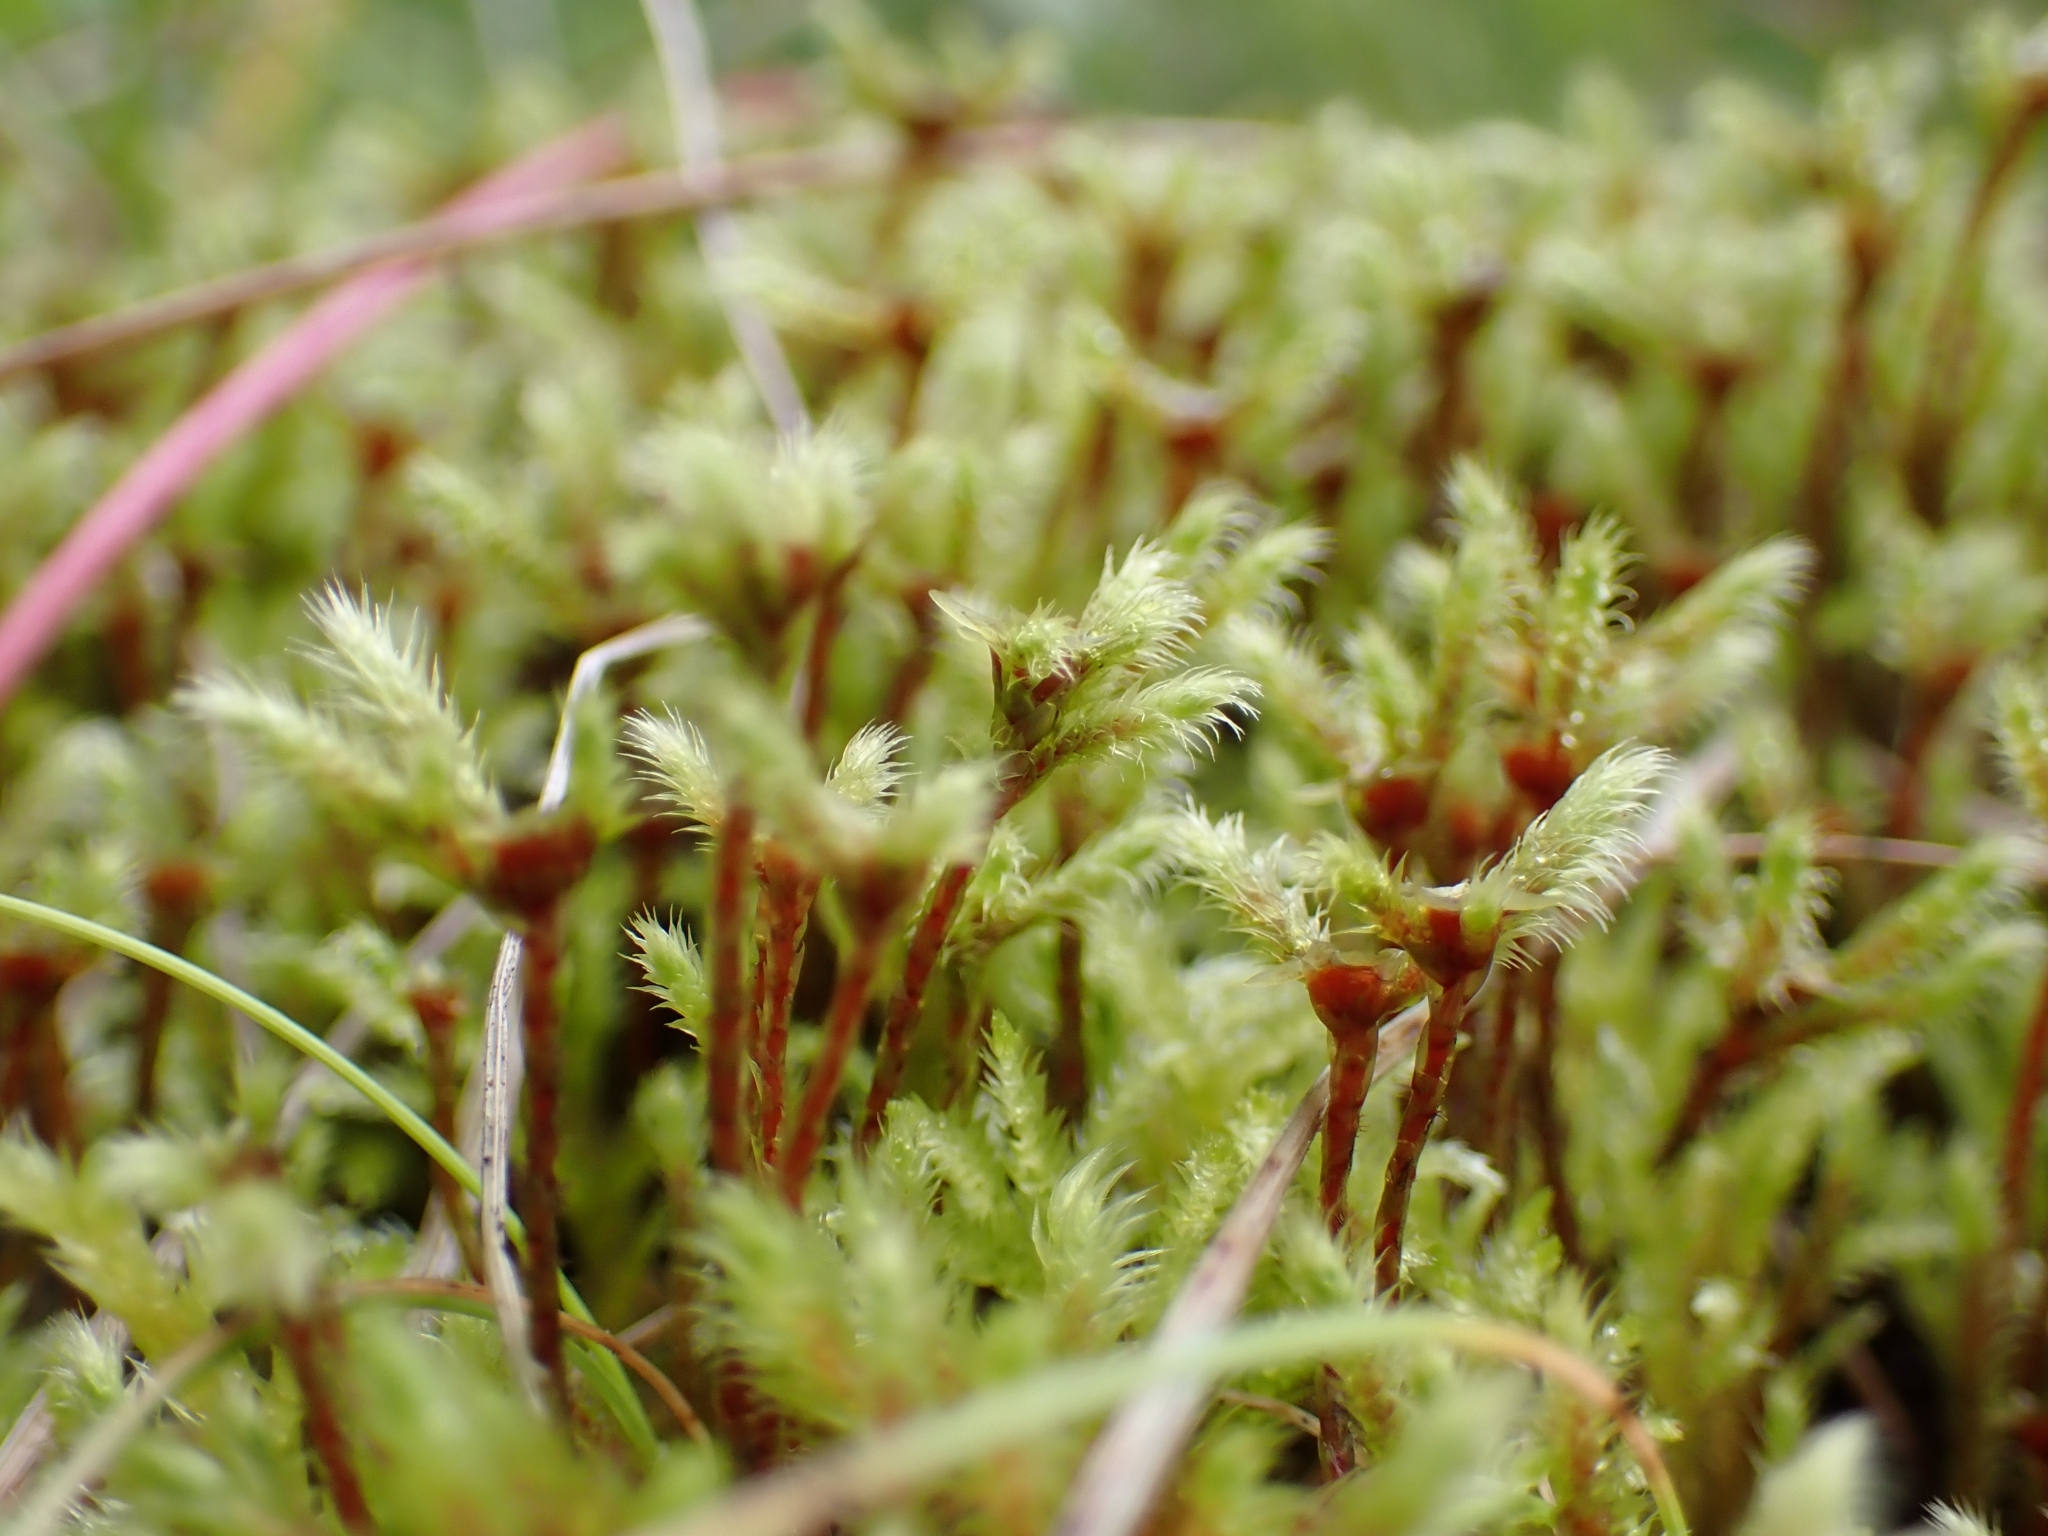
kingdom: Plantae
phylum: Tracheophyta
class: Pinopsida
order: Pinales
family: Pinaceae
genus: Picea
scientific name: Picea abies
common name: Norway spruce
